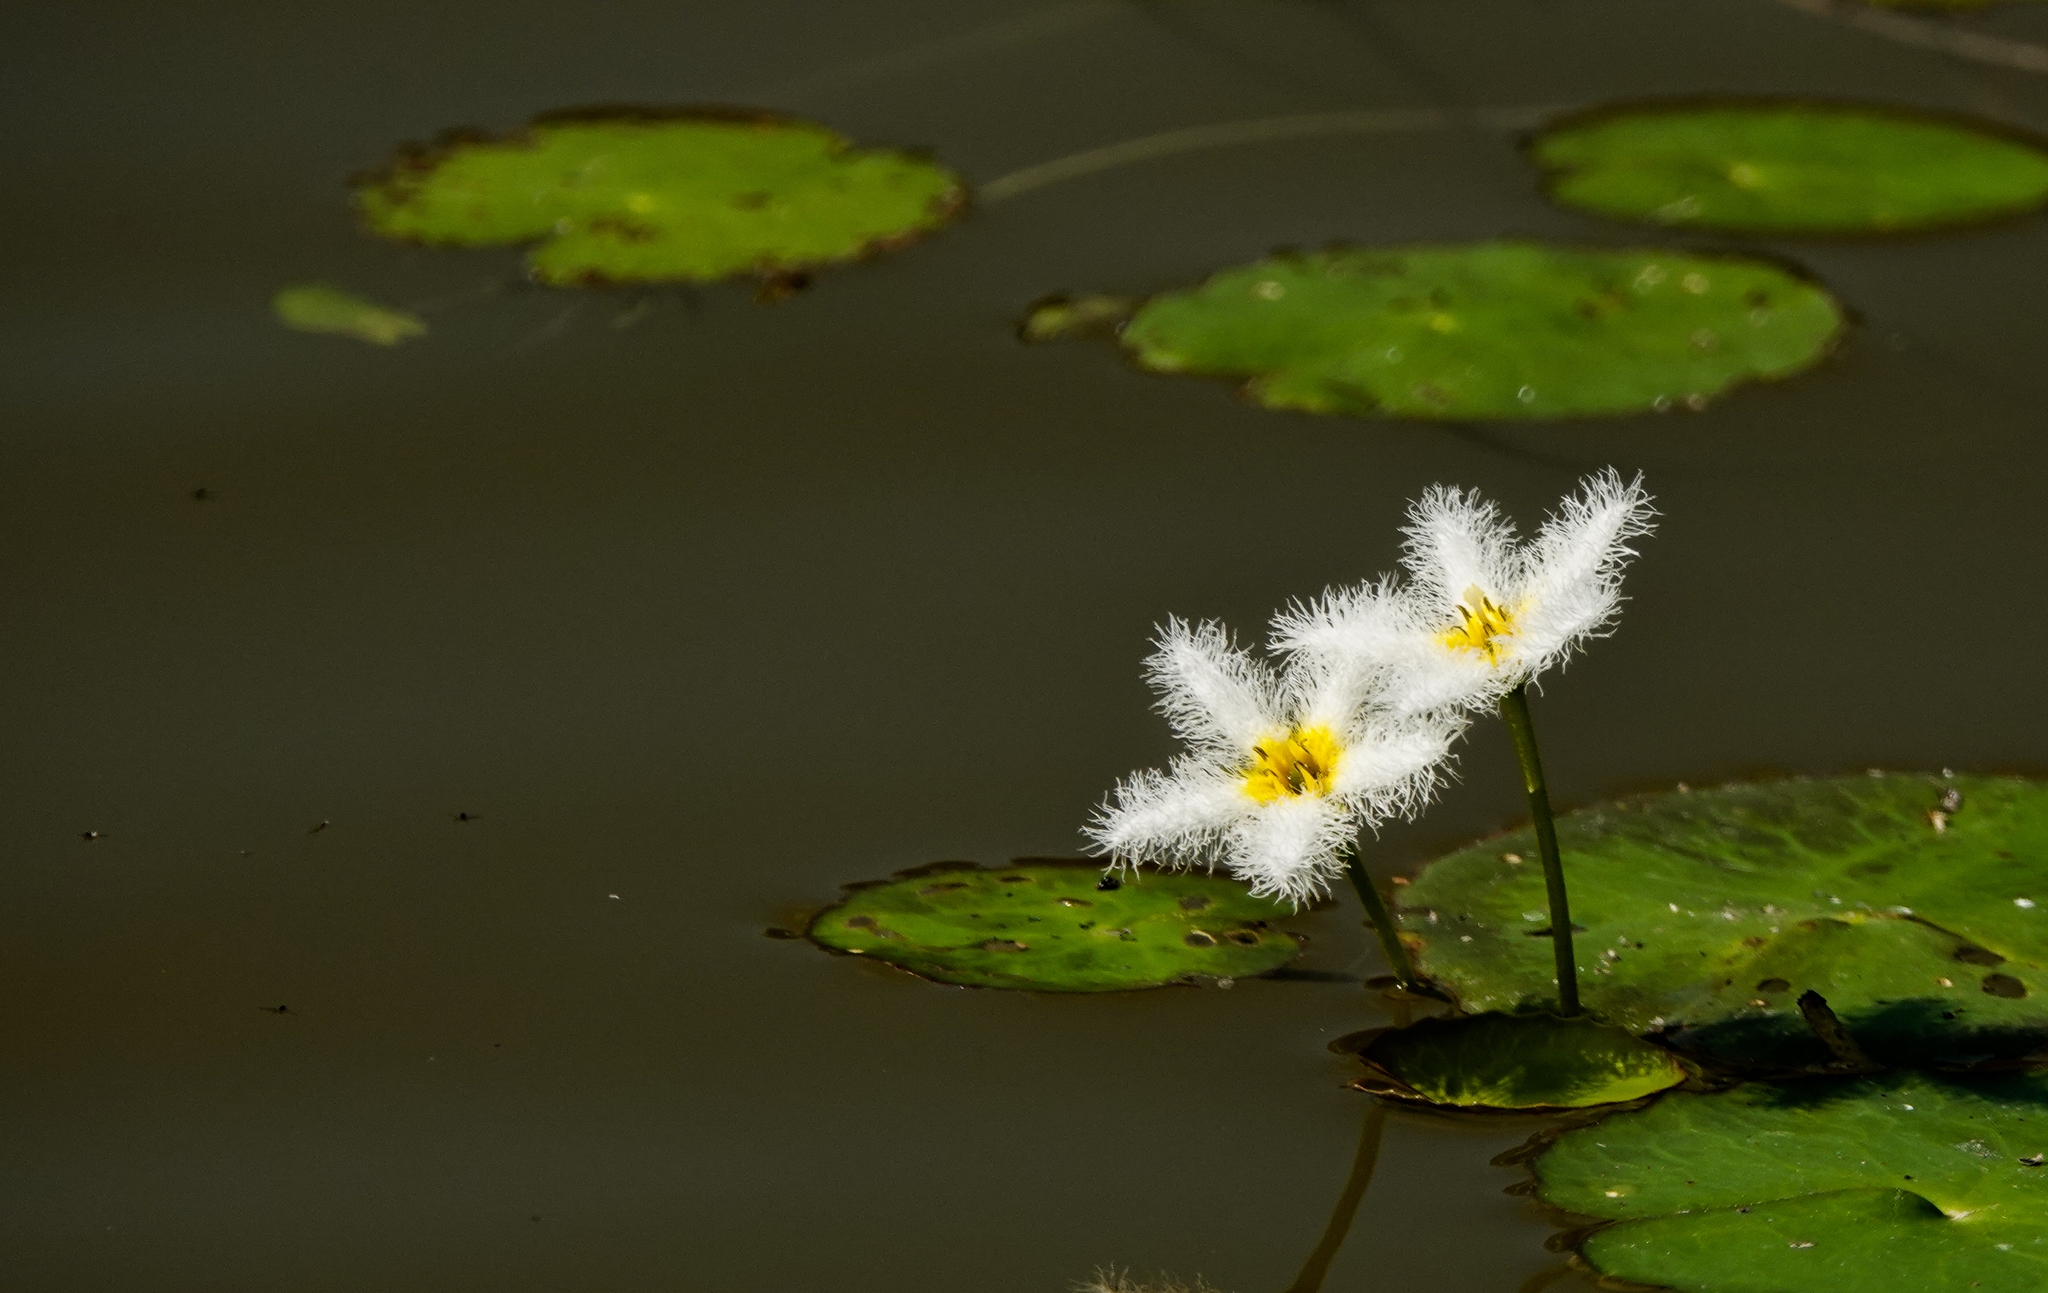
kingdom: Plantae
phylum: Tracheophyta
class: Magnoliopsida
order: Asterales
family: Menyanthaceae
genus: Nymphoides
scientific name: Nymphoides indica
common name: Water-snowflake
